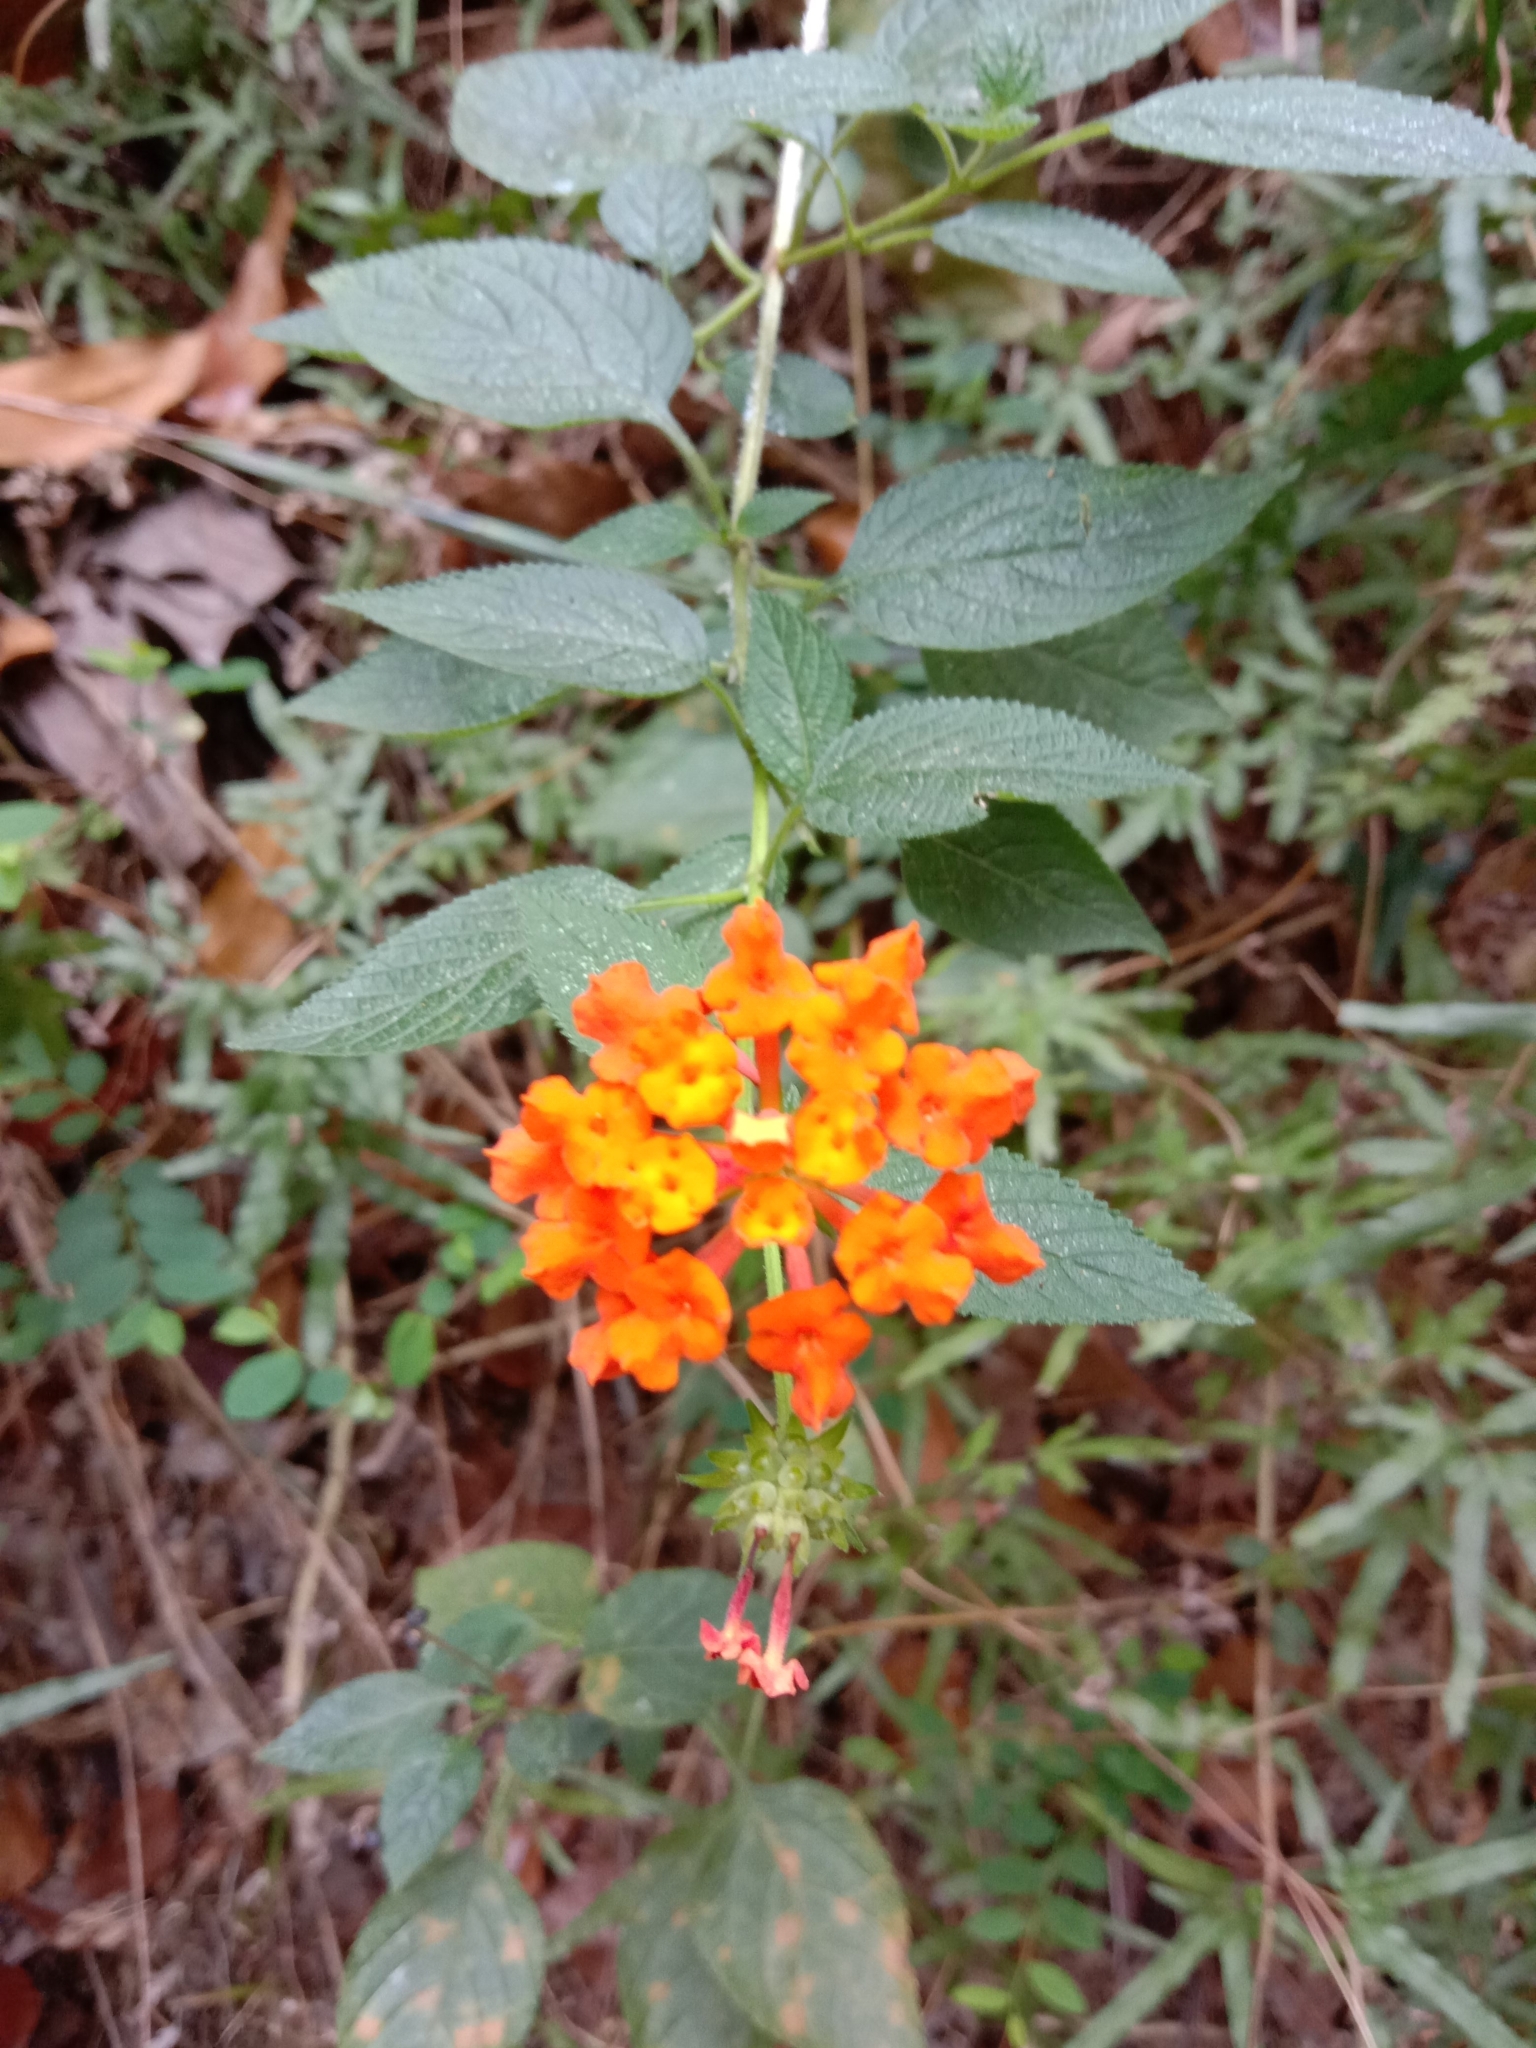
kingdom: Plantae
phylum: Tracheophyta
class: Magnoliopsida
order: Lamiales
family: Verbenaceae
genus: Lantana
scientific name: Lantana camara
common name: Lantana
